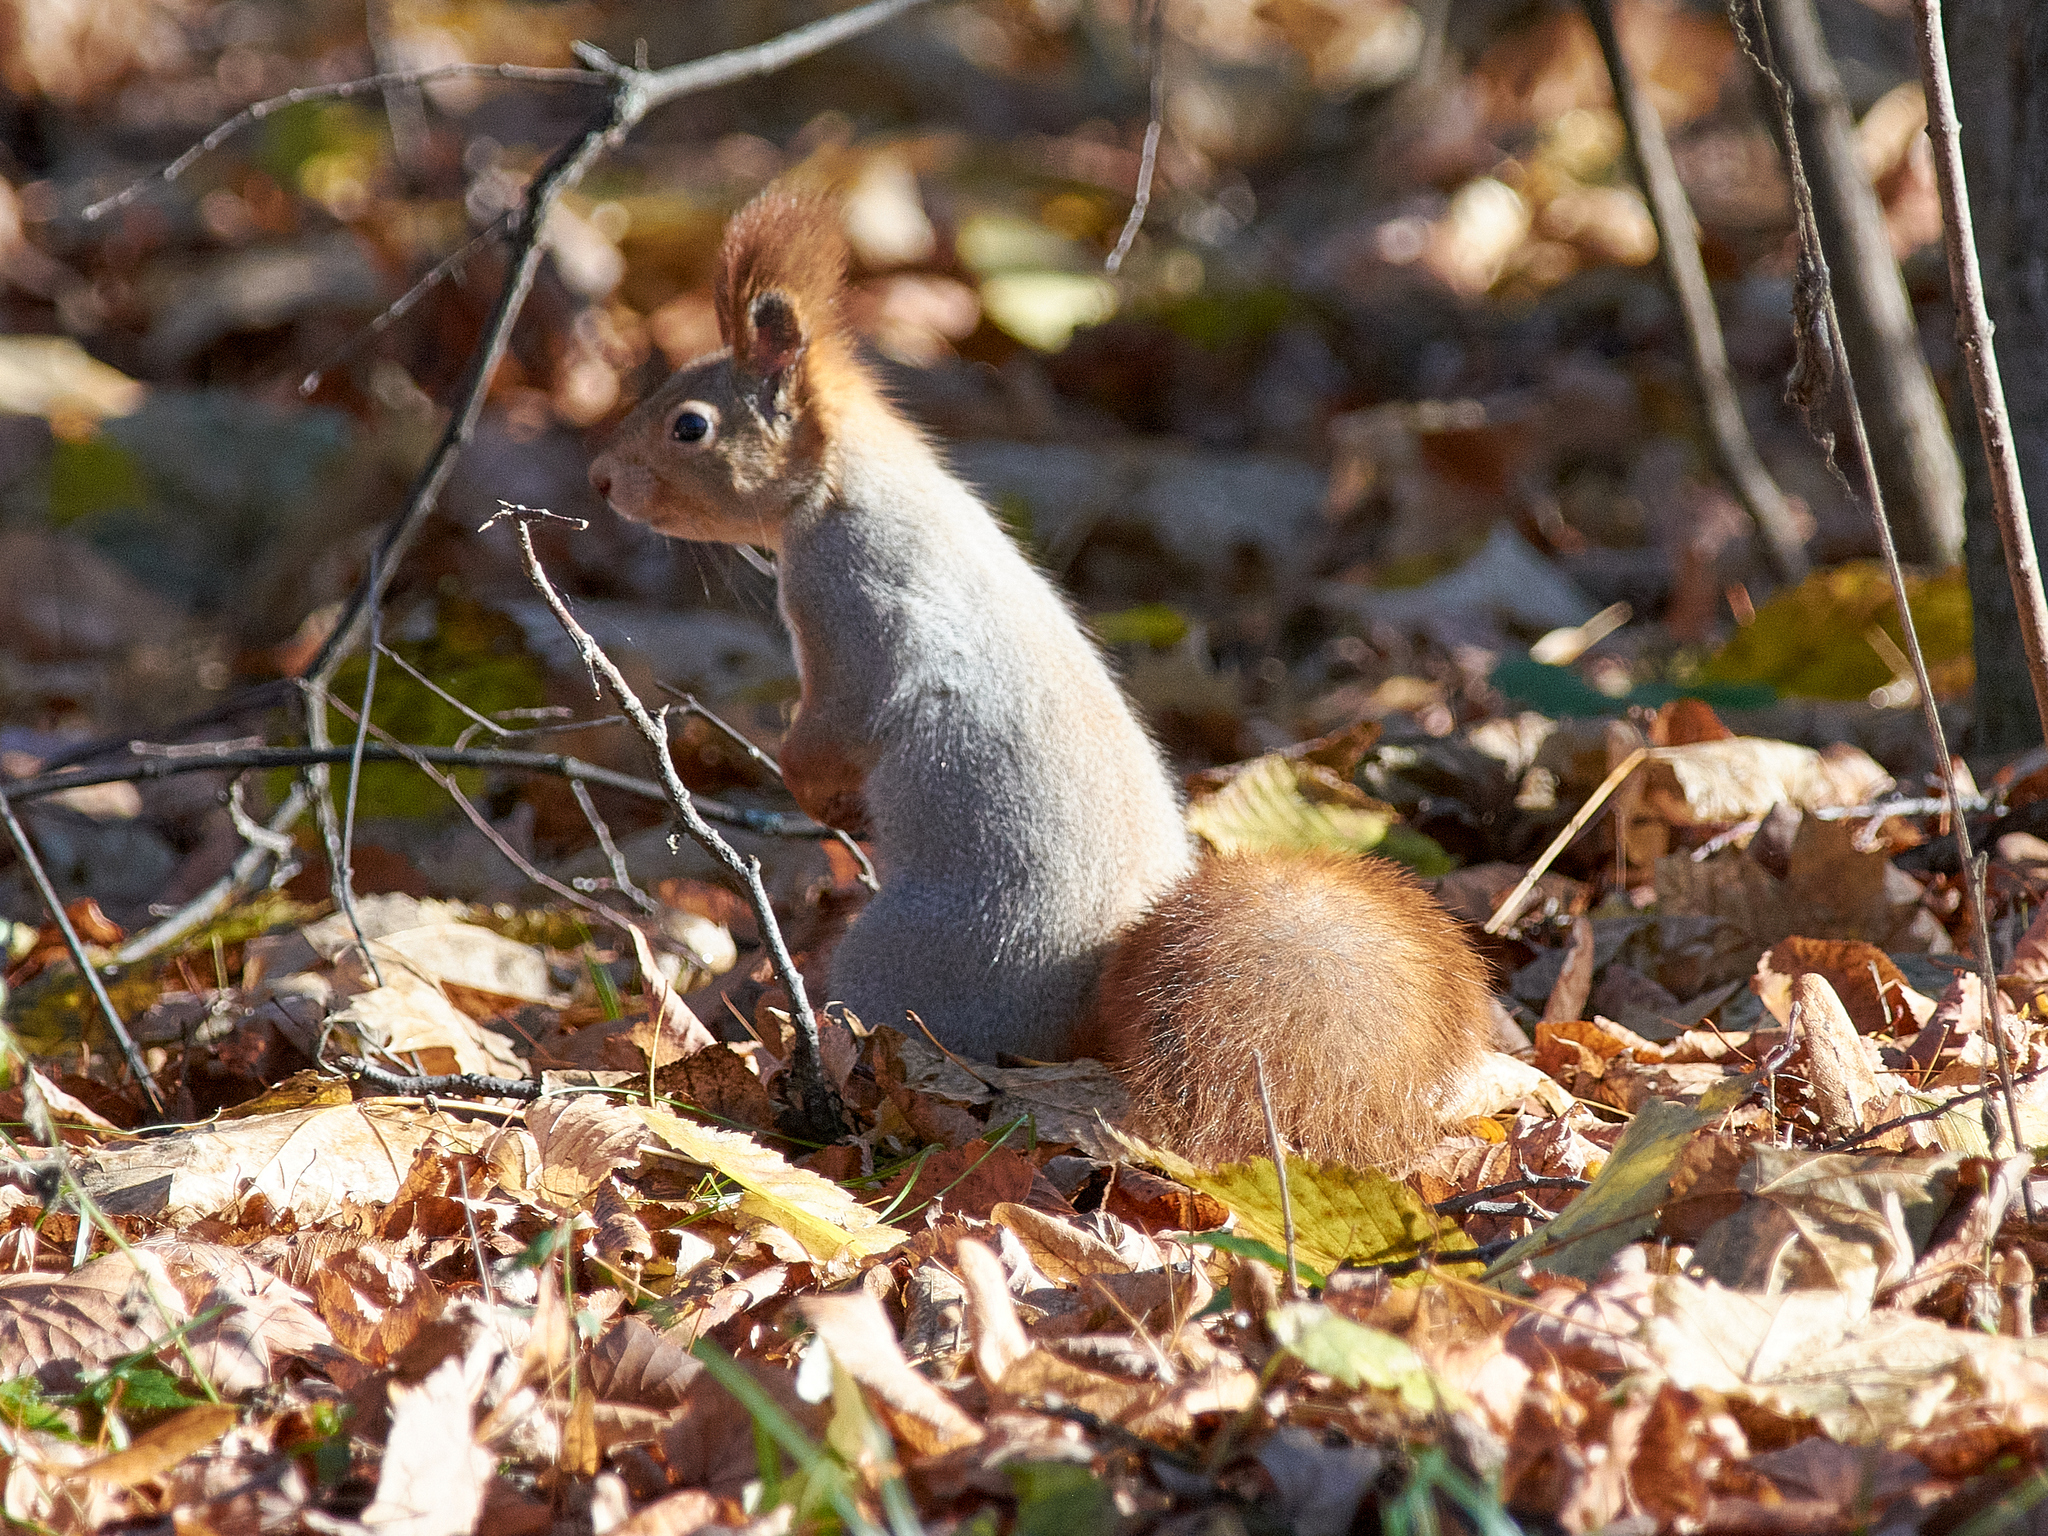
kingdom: Animalia
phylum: Chordata
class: Mammalia
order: Rodentia
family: Sciuridae
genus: Sciurus
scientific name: Sciurus vulgaris
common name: Eurasian red squirrel
